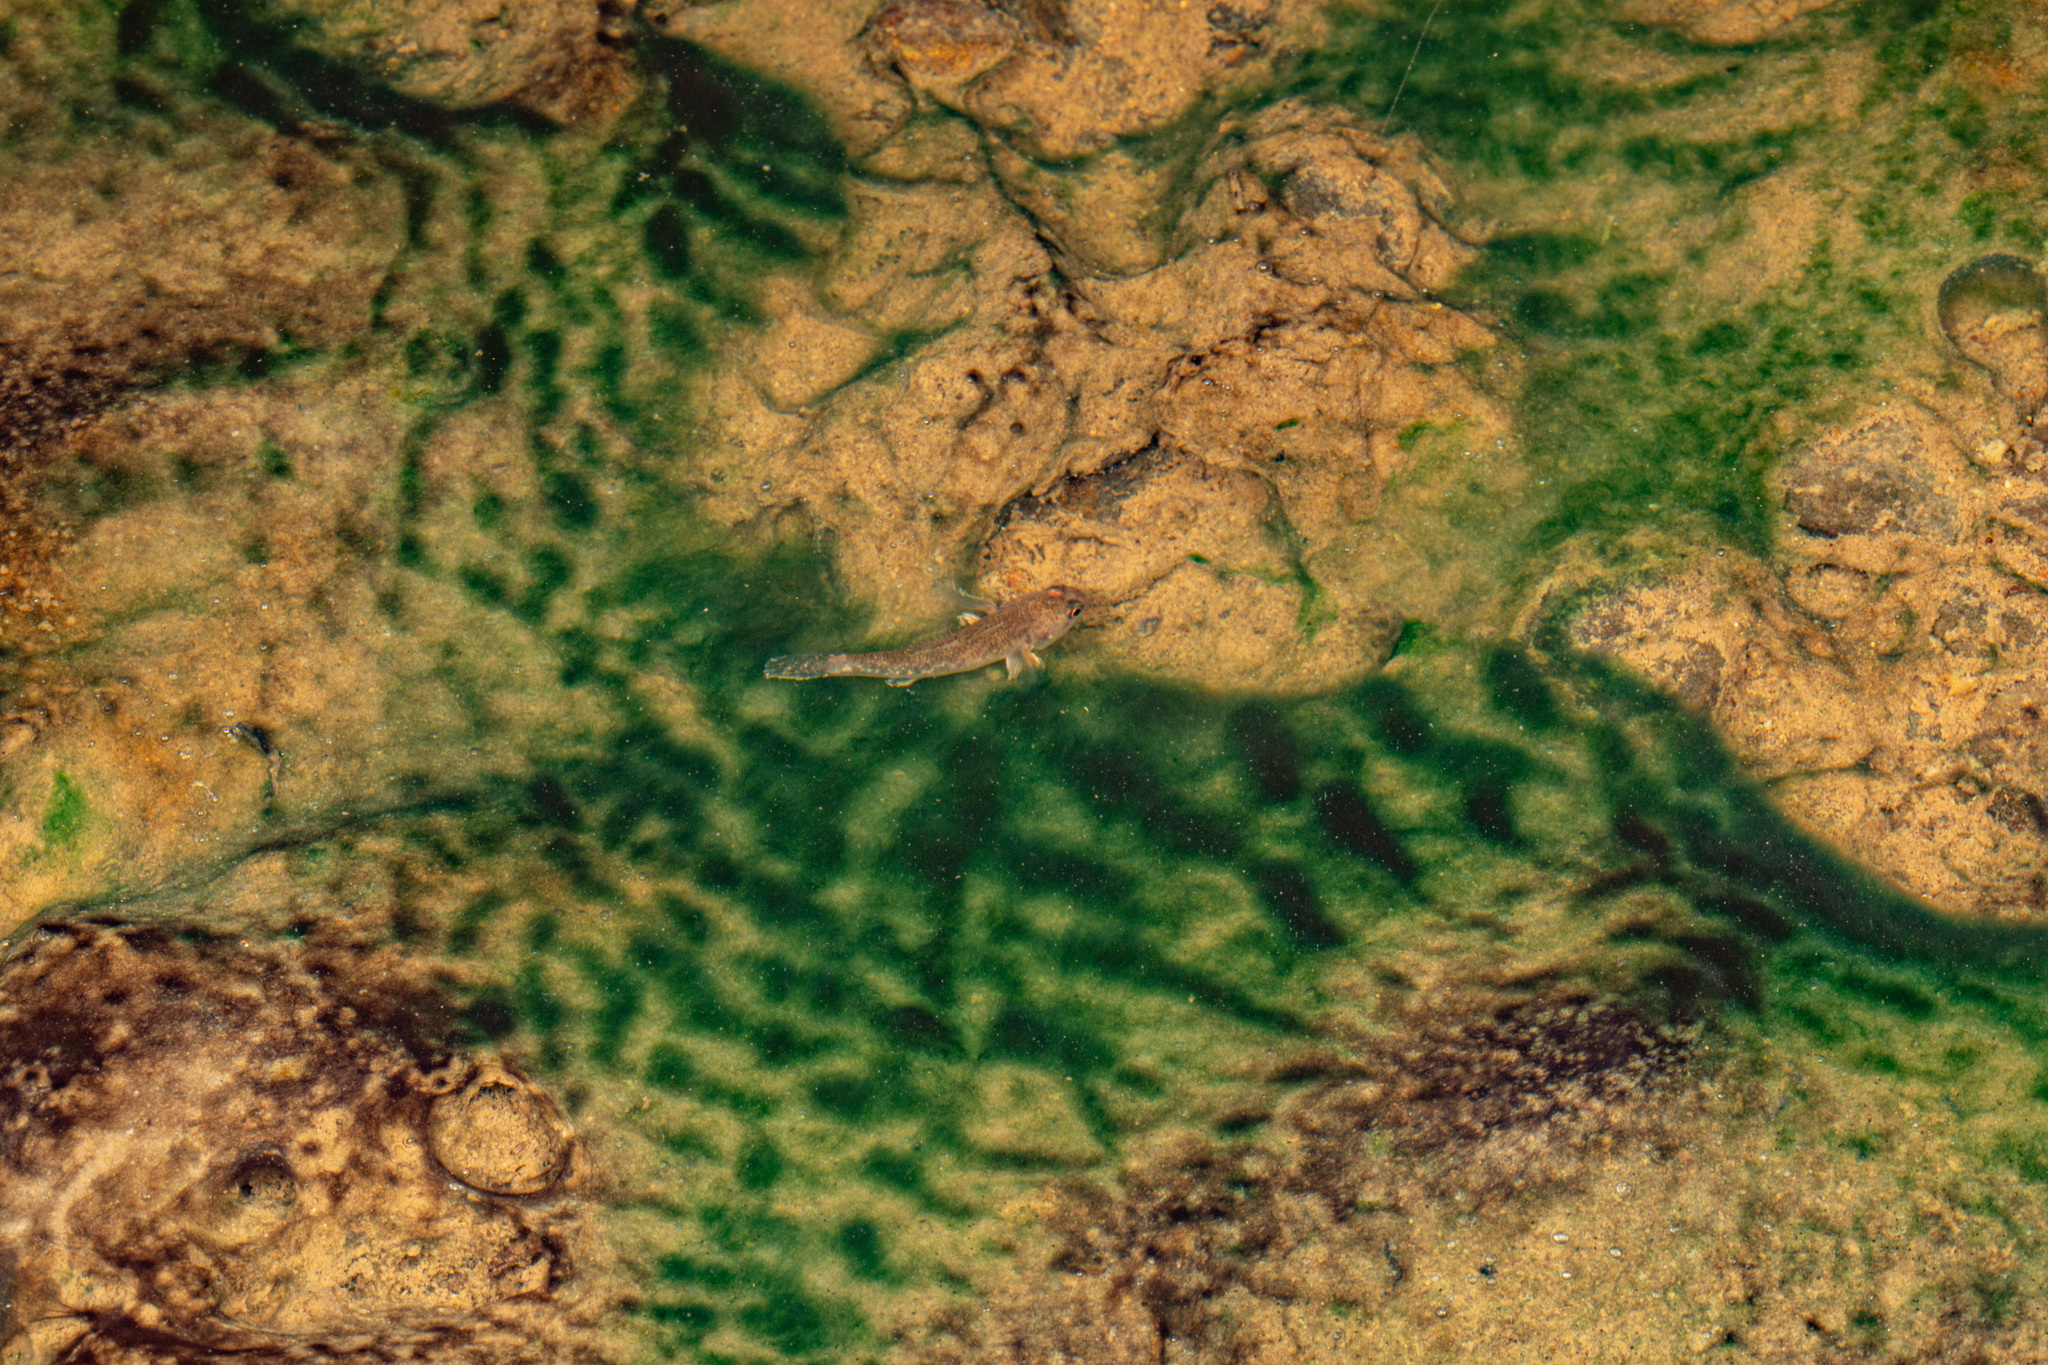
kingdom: Animalia
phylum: Chordata
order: Perciformes
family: Eleotridae
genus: Gobiomorphus
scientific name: Gobiomorphus basalis
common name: Tarndale bully
